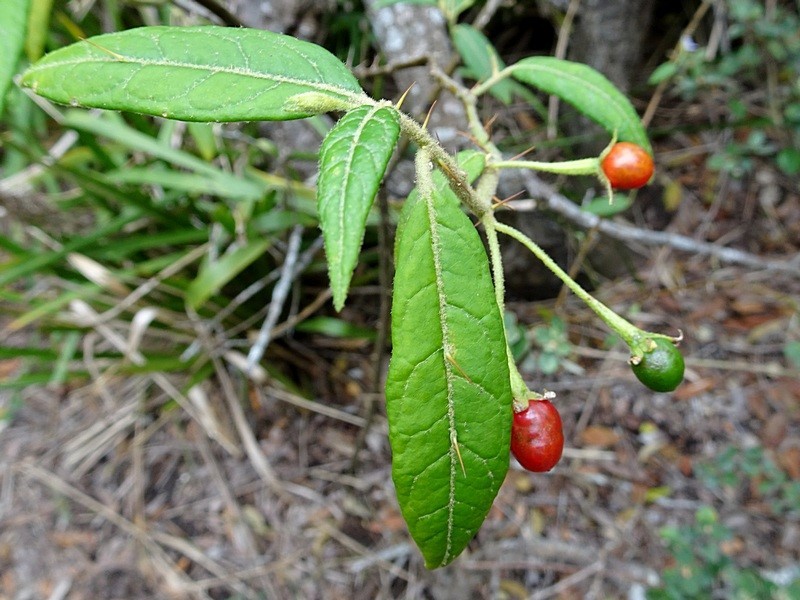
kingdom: Plantae
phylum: Tracheophyta
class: Magnoliopsida
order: Solanales
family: Solanaceae
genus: Solanum
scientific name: Solanum stelligerum
